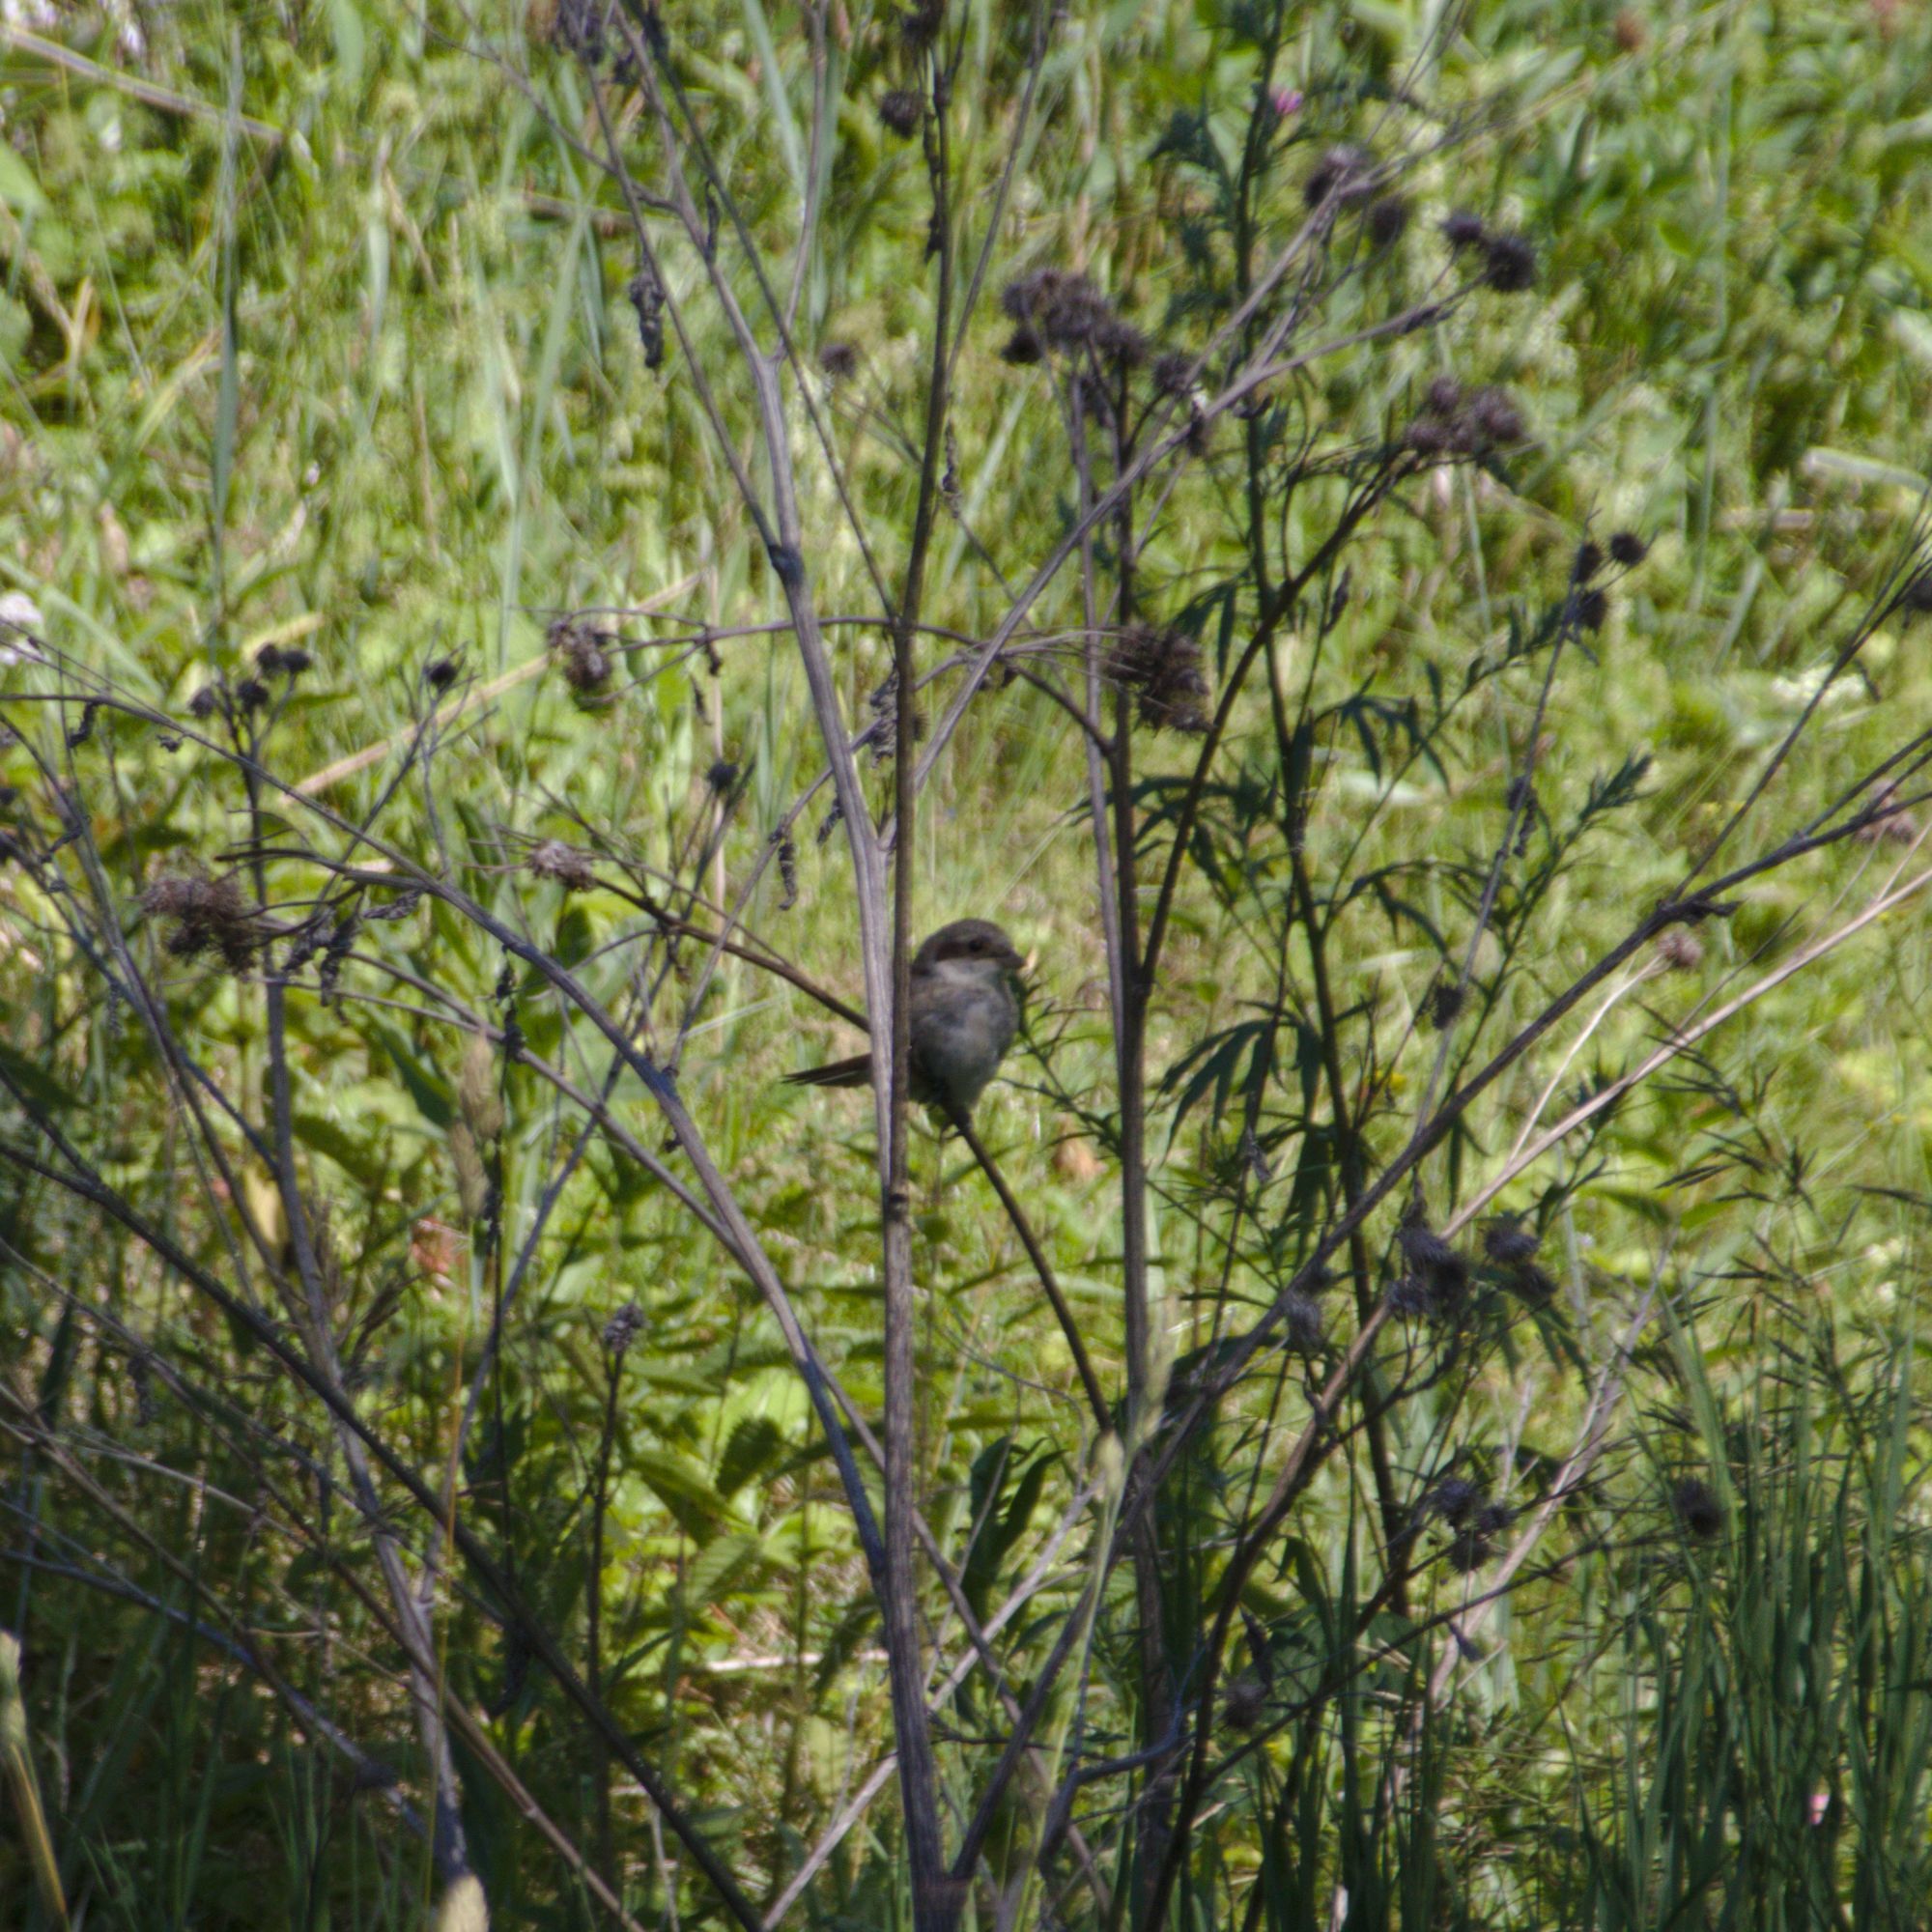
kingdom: Animalia
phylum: Chordata
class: Aves
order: Passeriformes
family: Laniidae
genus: Lanius
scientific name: Lanius collurio
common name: Red-backed shrike
